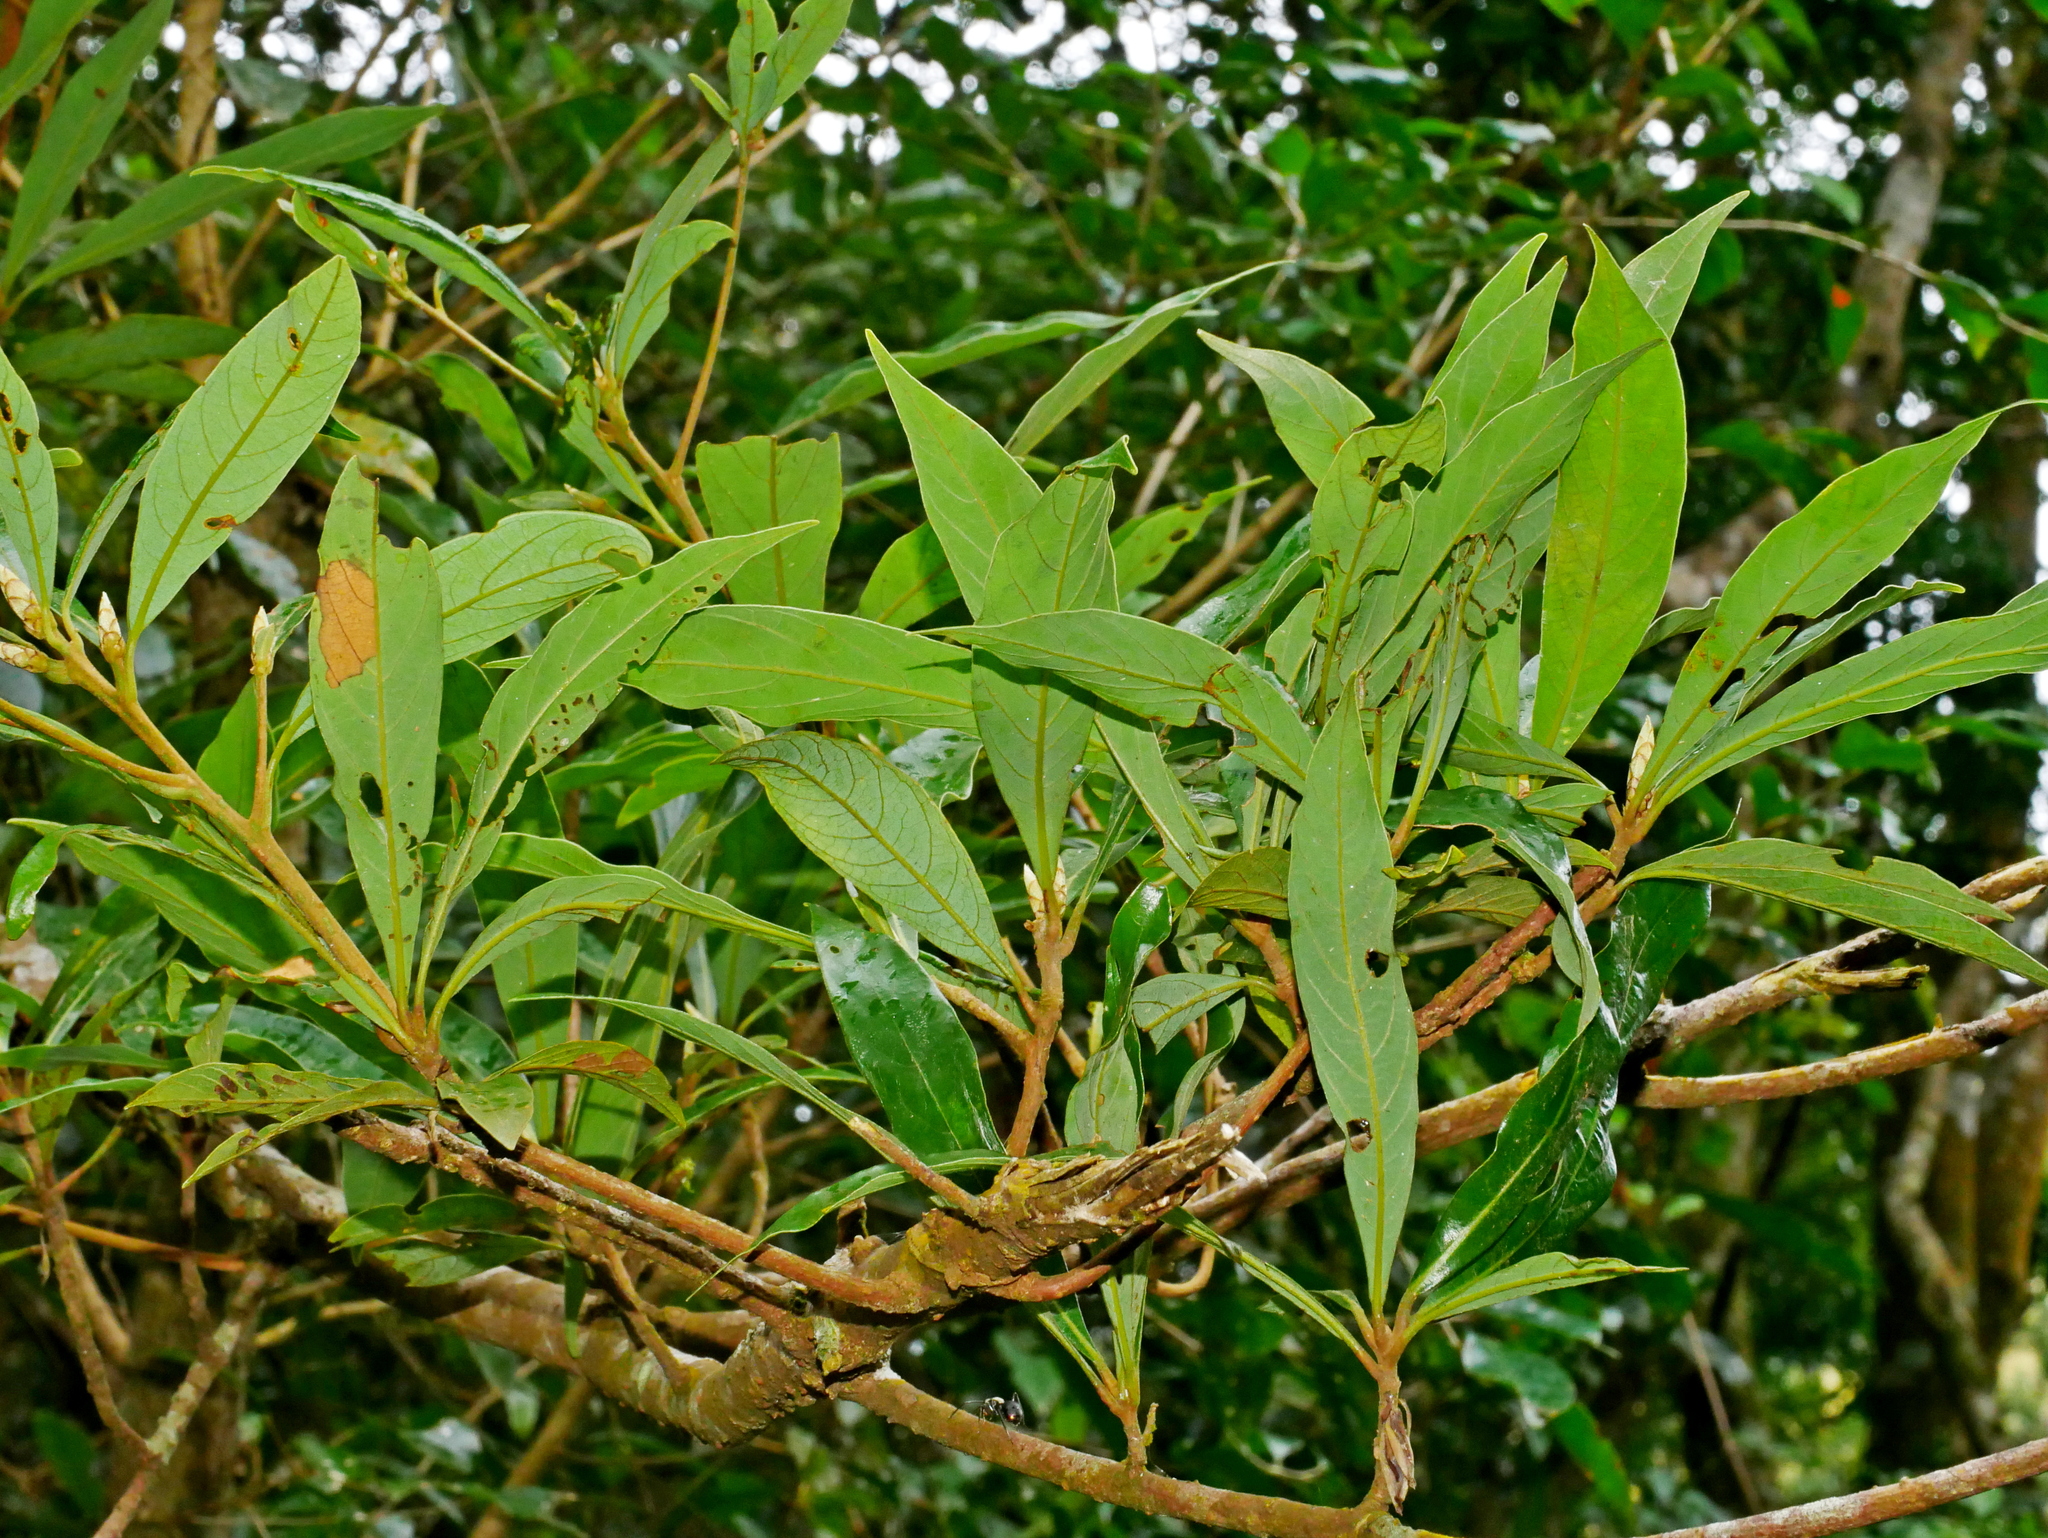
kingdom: Plantae
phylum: Tracheophyta
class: Magnoliopsida
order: Laurales
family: Lauraceae
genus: Litsea
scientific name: Litsea acutivena
